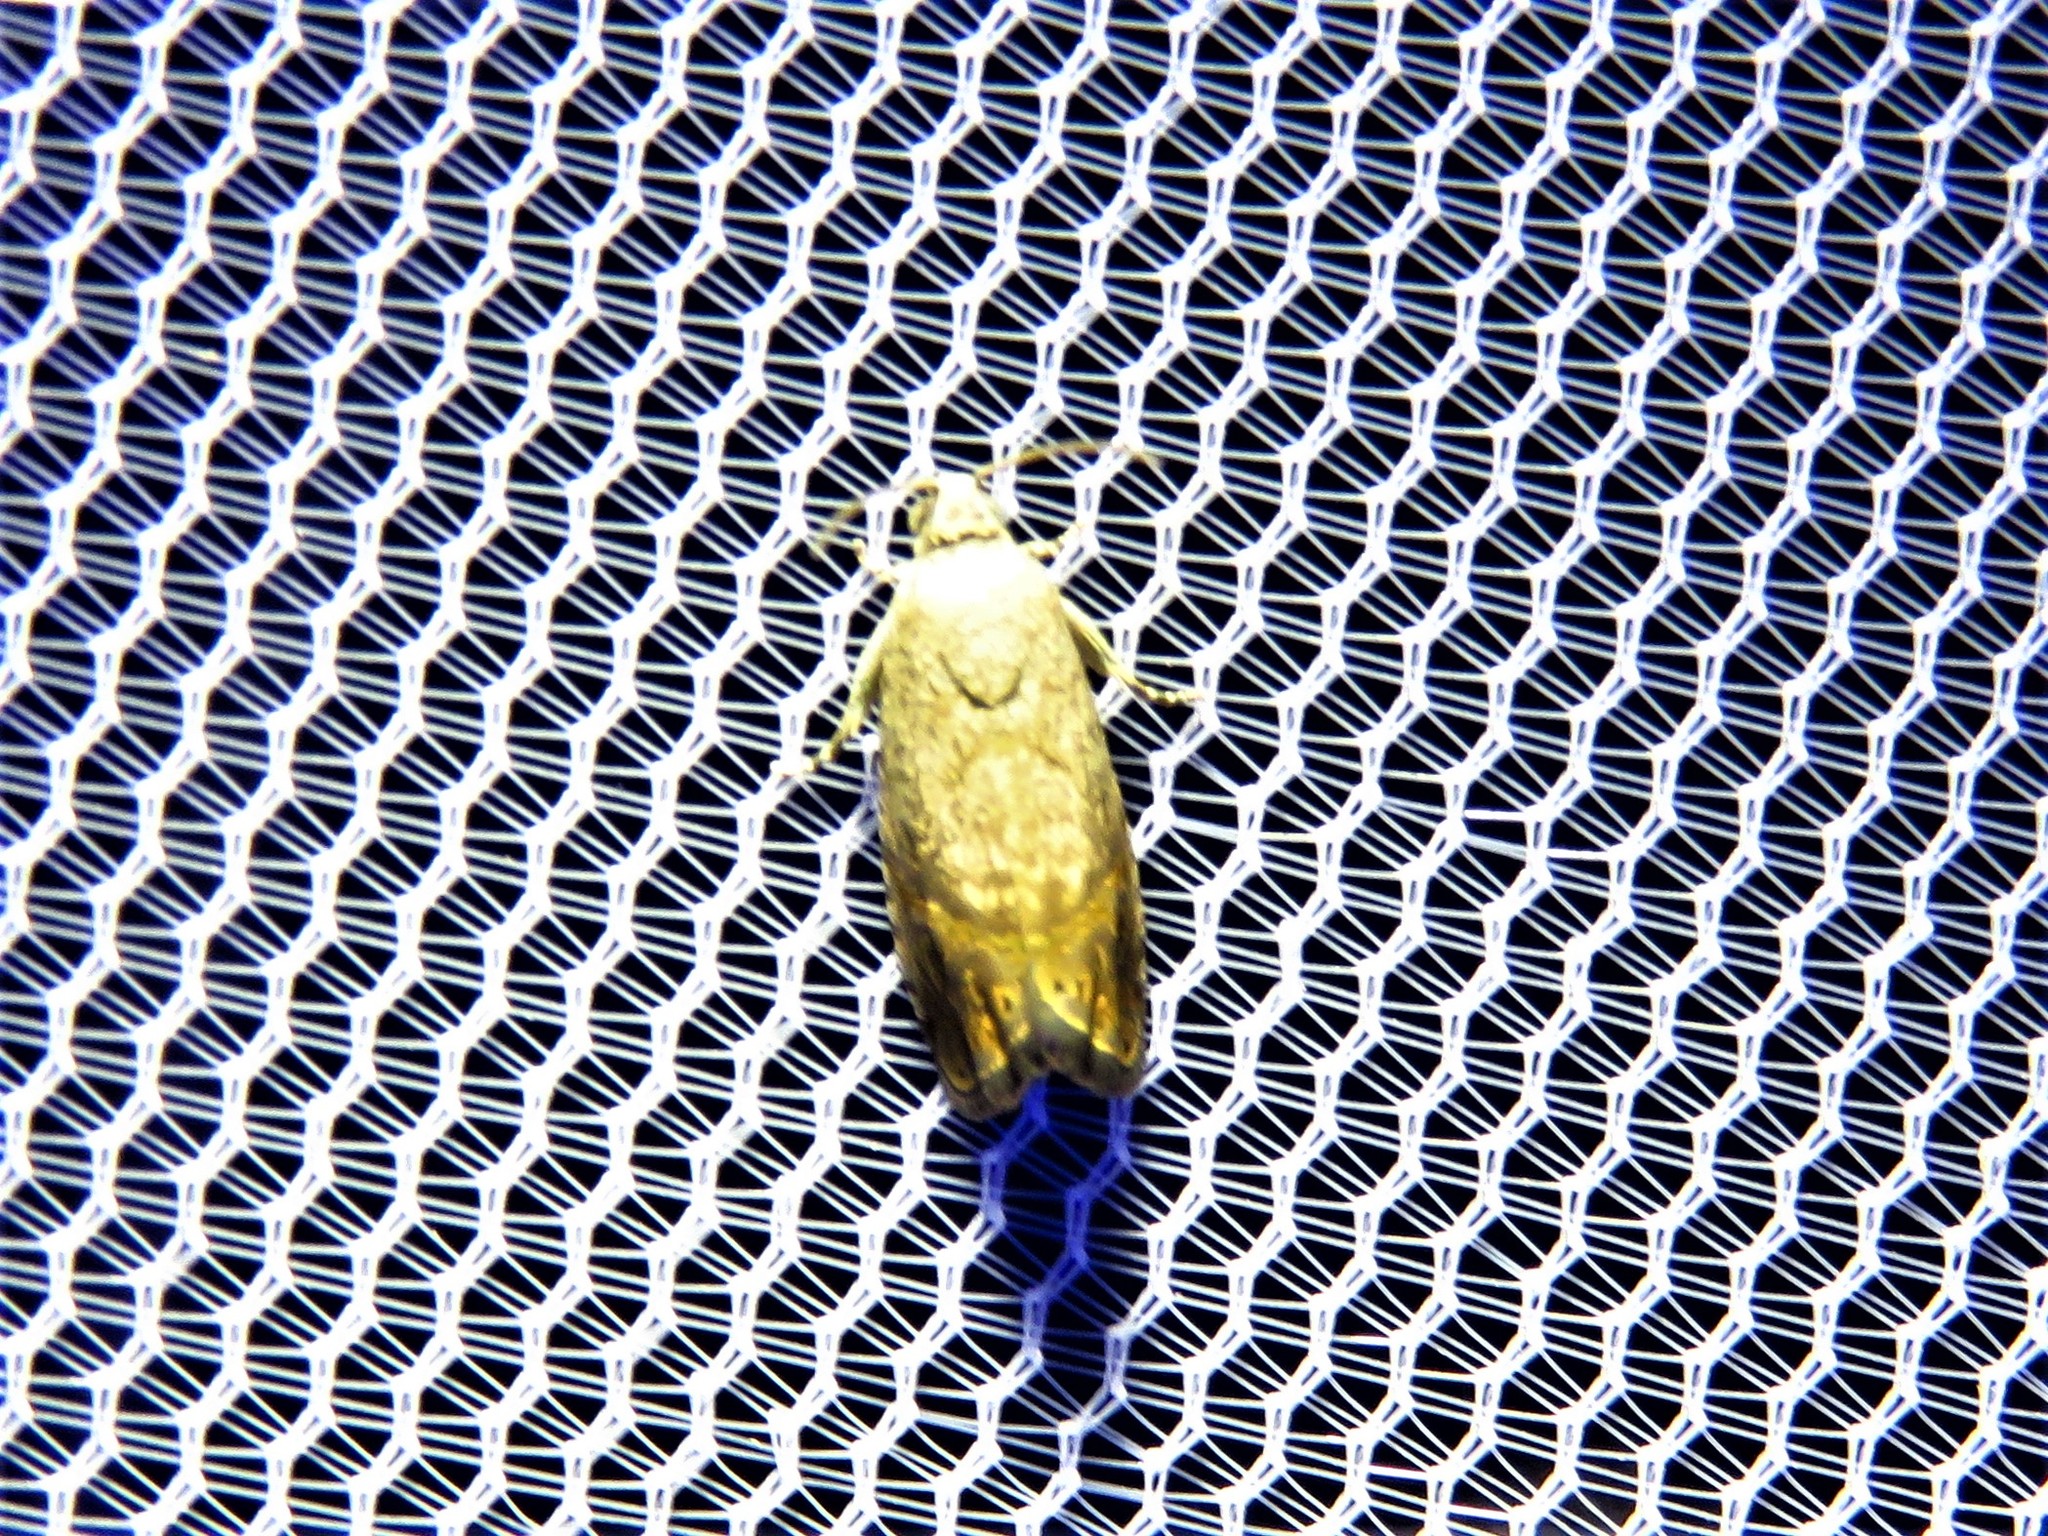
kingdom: Animalia
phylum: Arthropoda
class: Insecta
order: Lepidoptera
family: Tortricidae
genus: Ethelgoda
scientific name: Ethelgoda texanana
